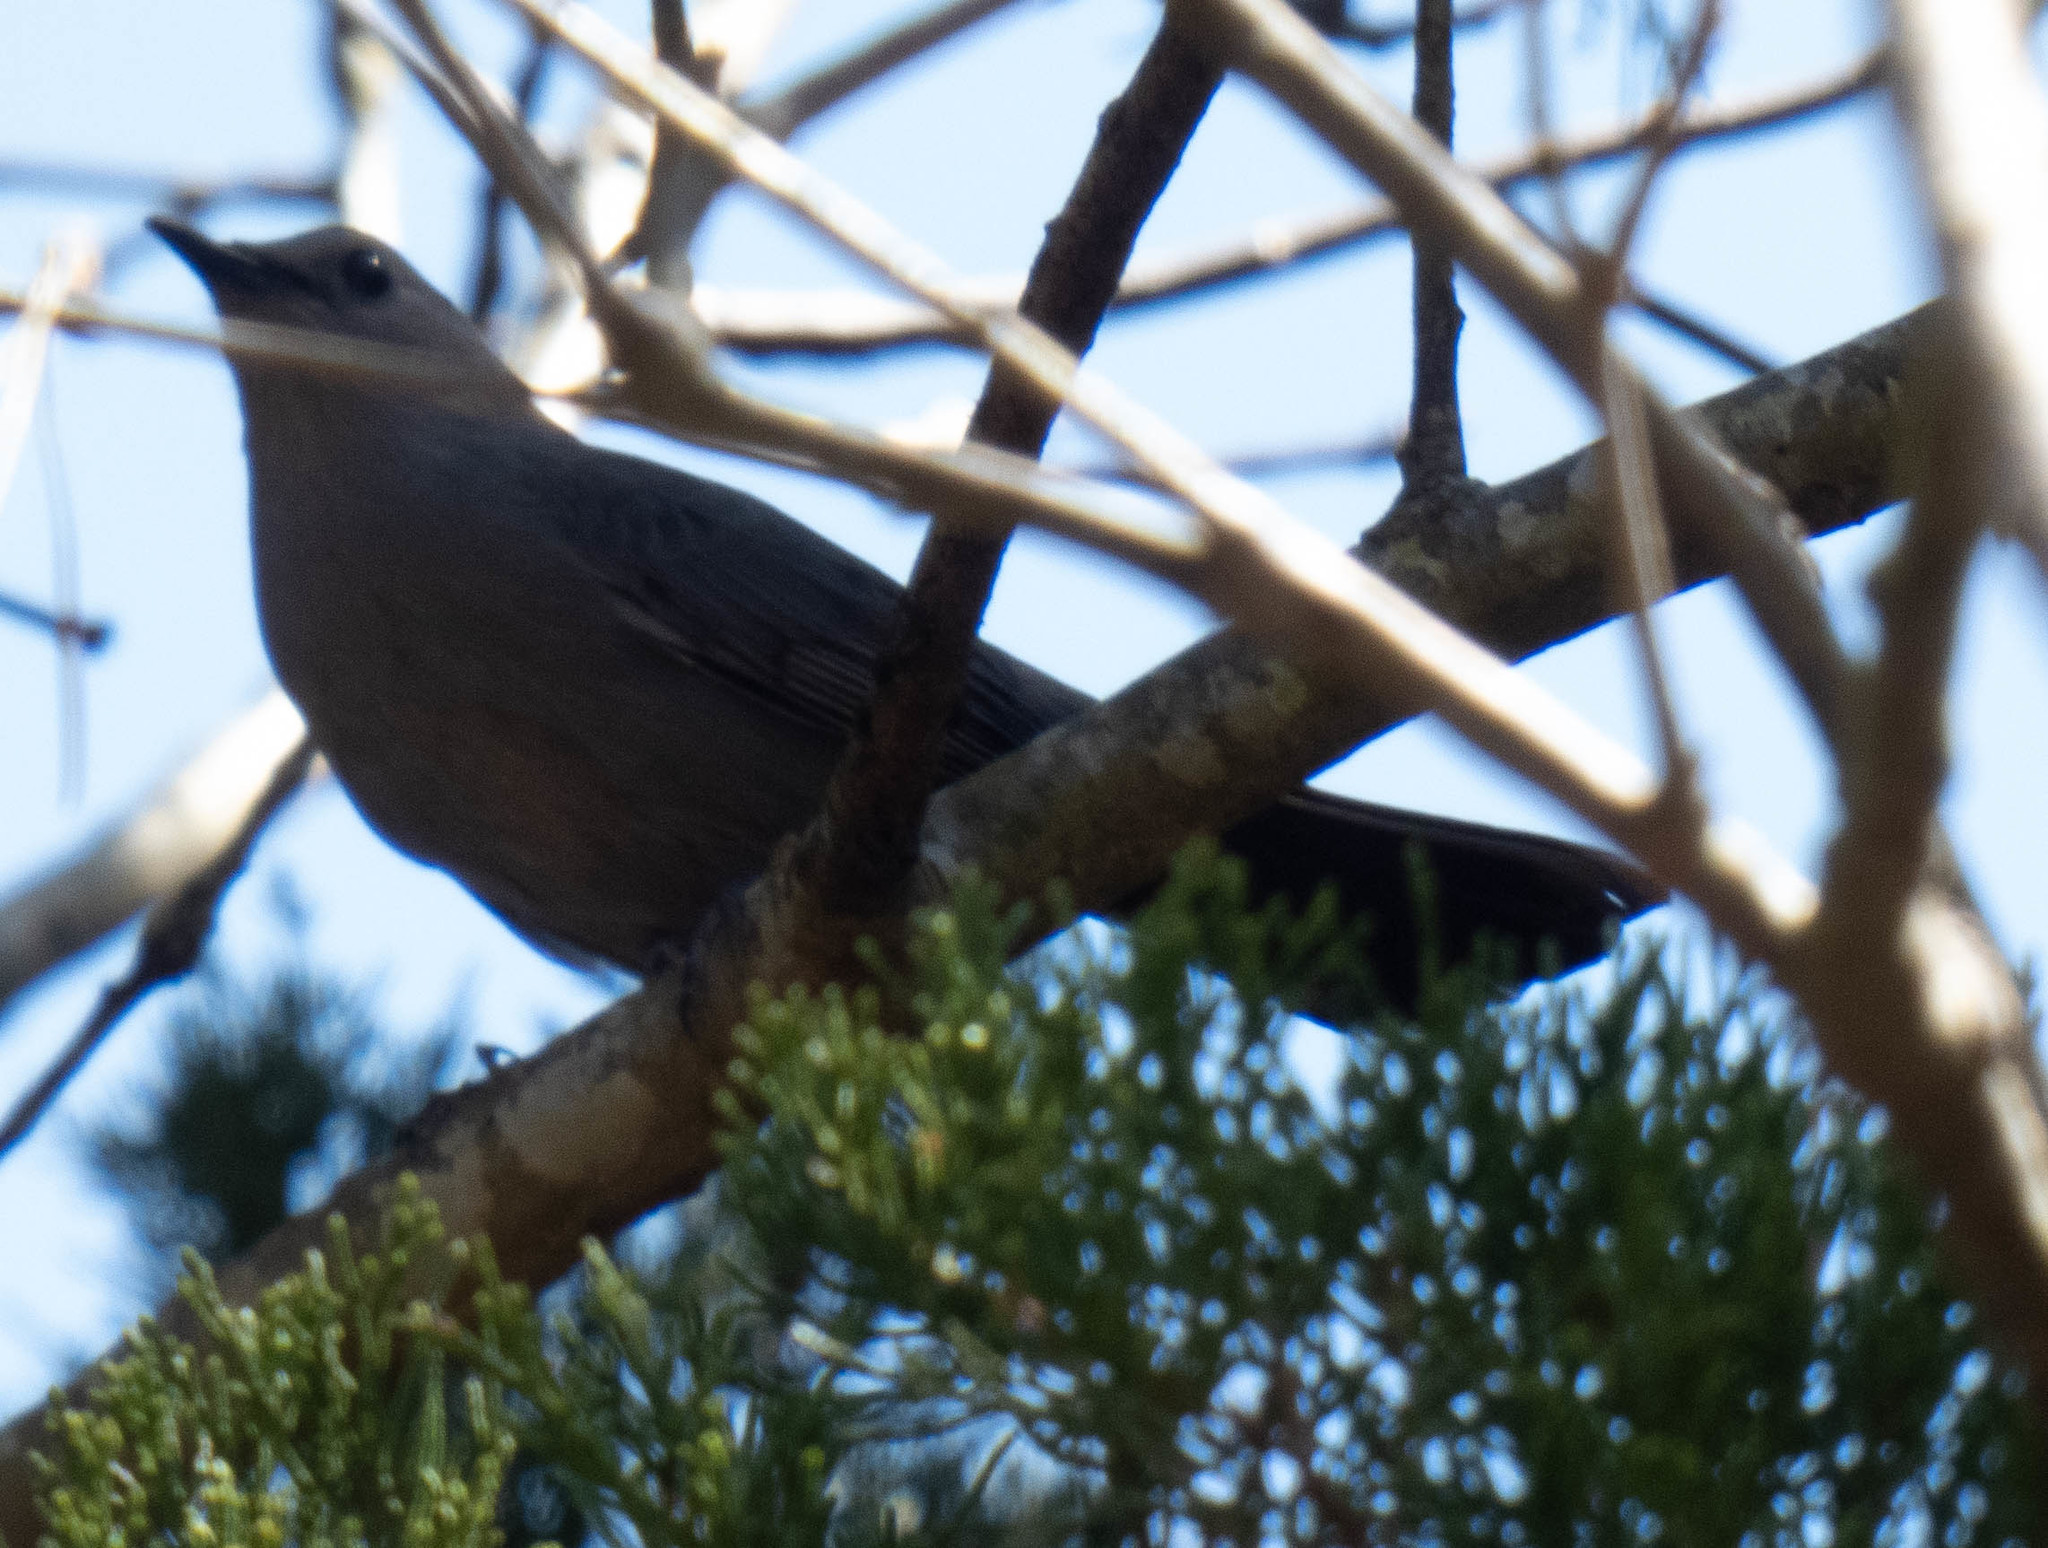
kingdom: Animalia
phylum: Chordata
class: Aves
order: Passeriformes
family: Mimidae
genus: Dumetella
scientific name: Dumetella carolinensis
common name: Gray catbird
